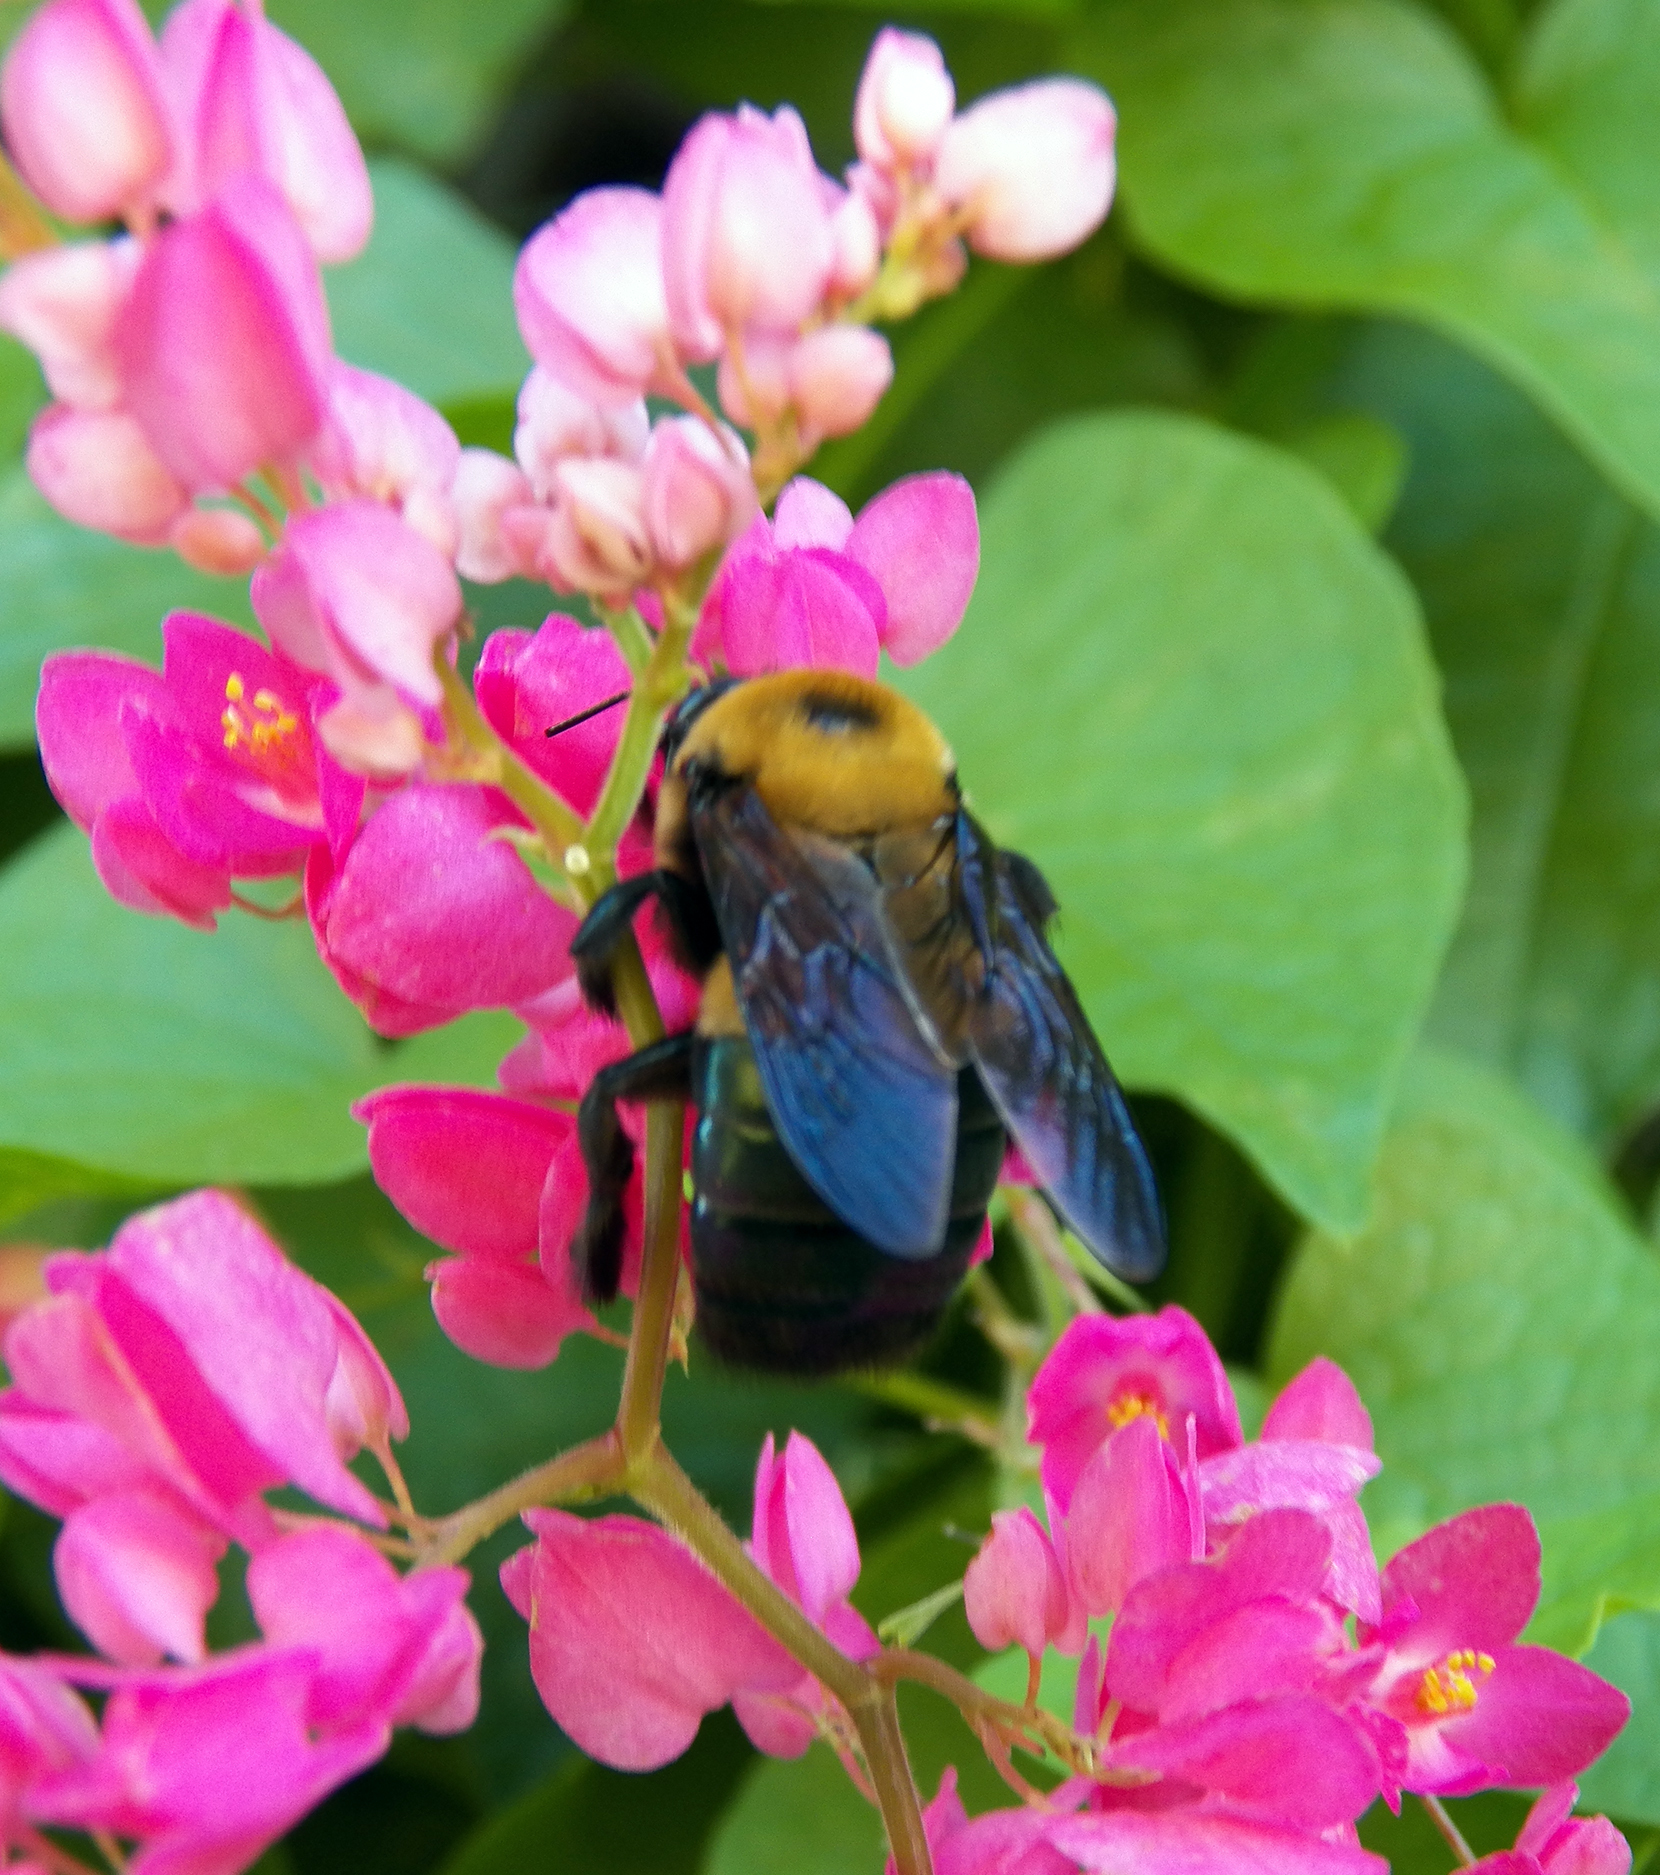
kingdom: Animalia
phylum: Arthropoda
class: Insecta
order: Hymenoptera
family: Apidae
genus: Xylocopa
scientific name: Xylocopa virginica
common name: Carpenter bee
